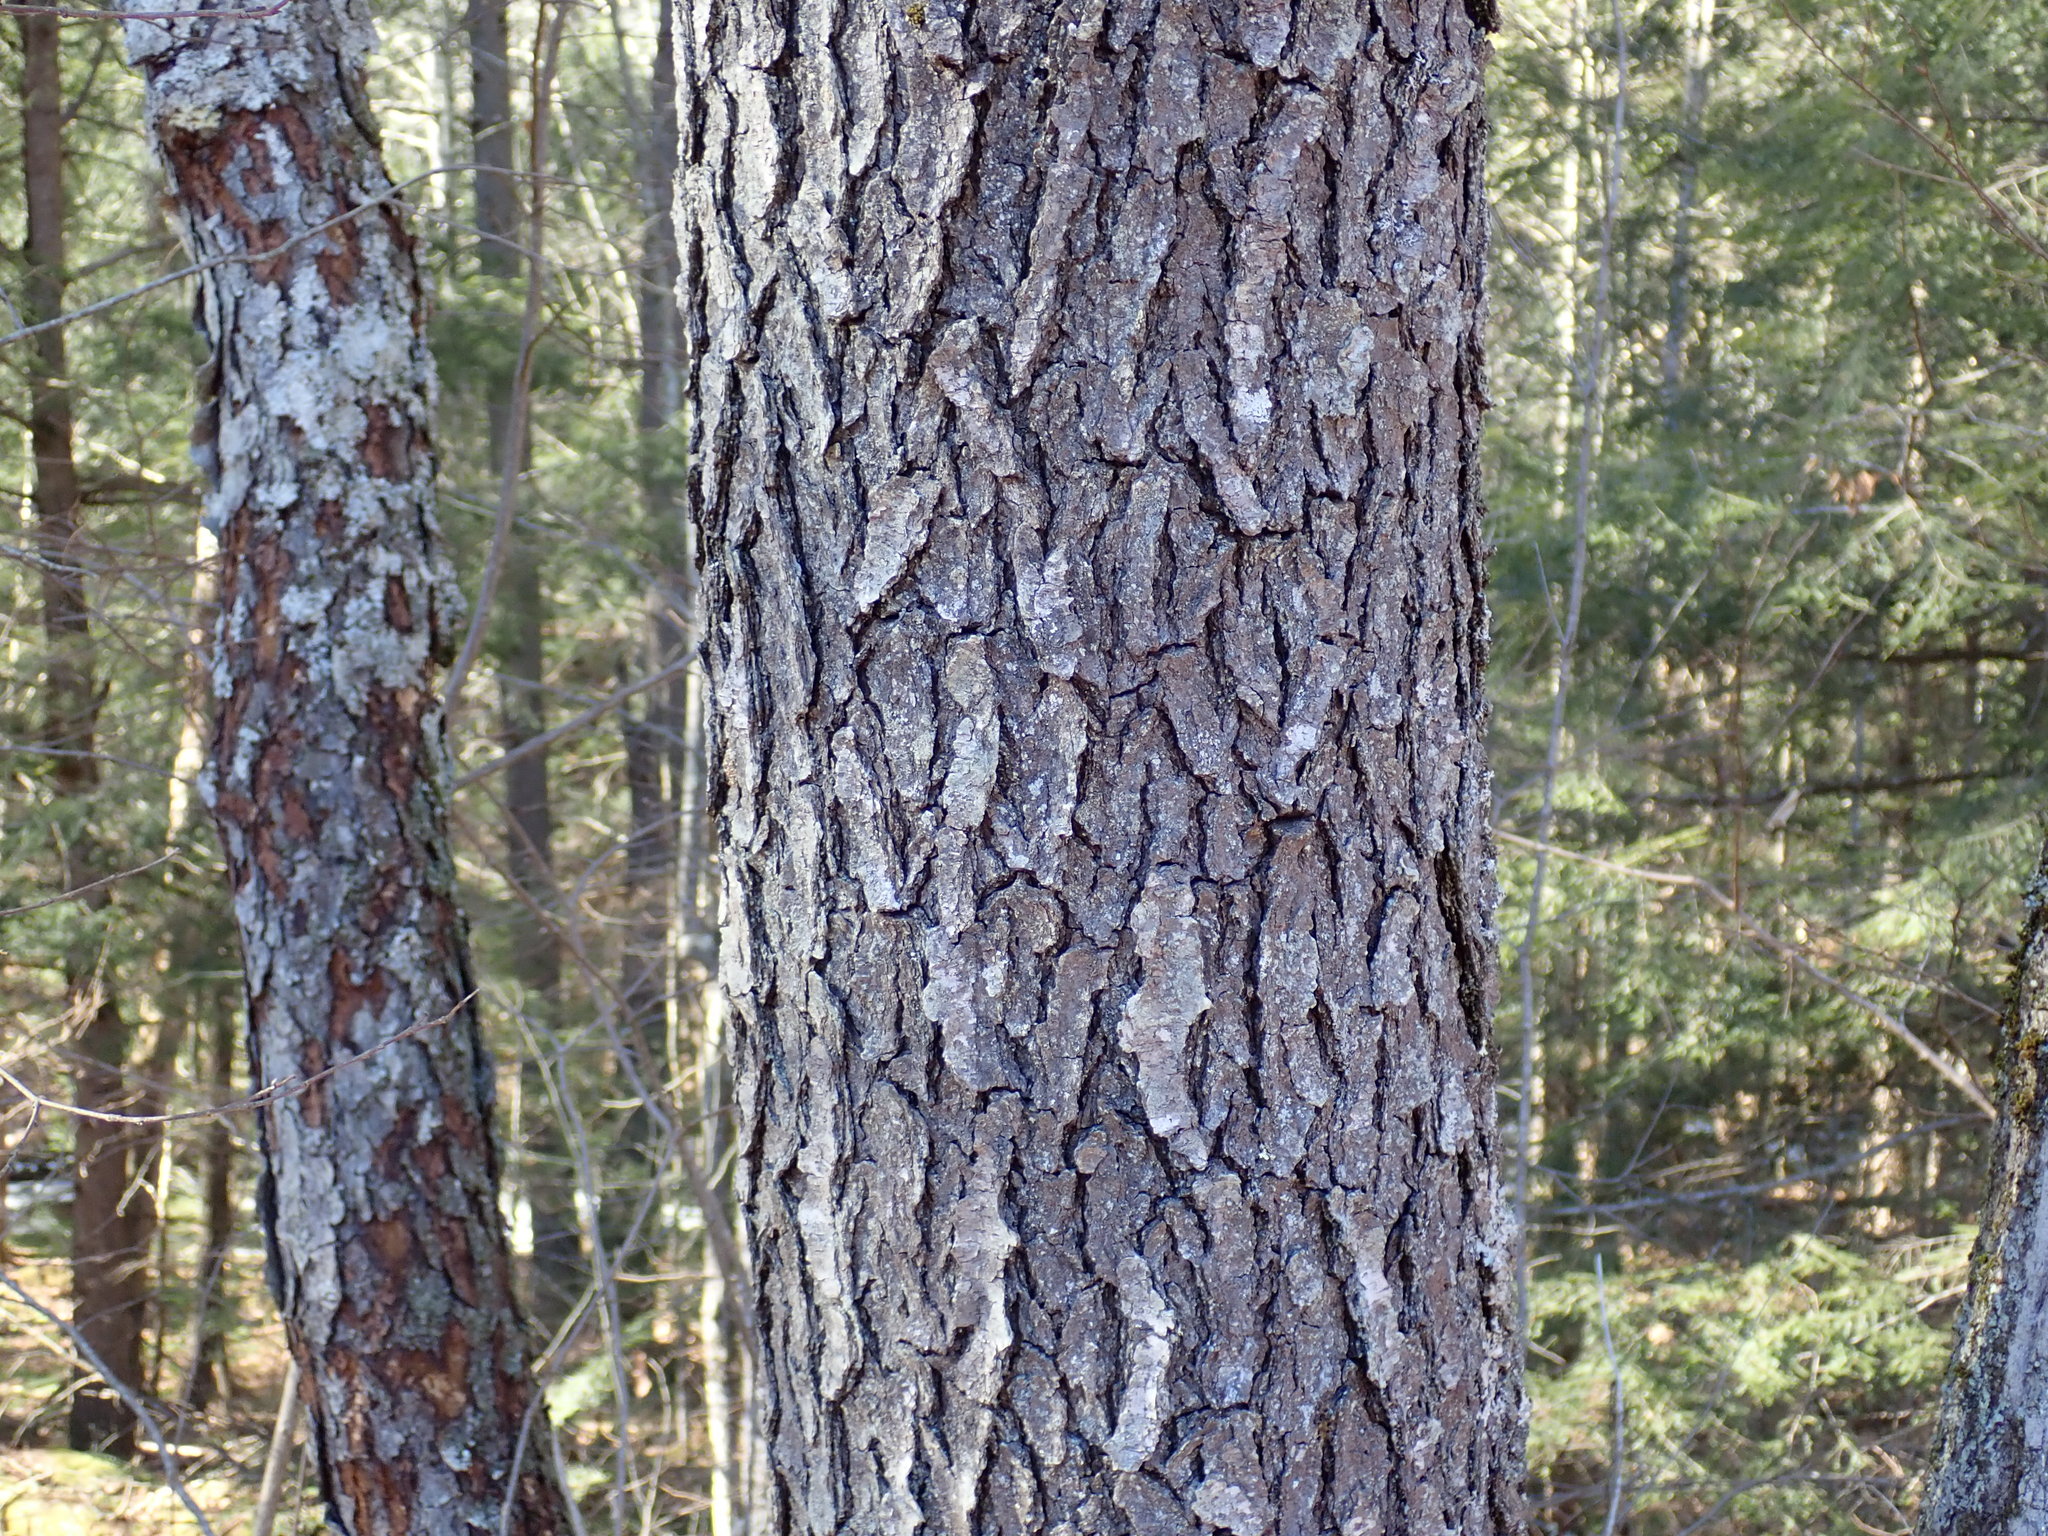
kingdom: Plantae
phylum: Tracheophyta
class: Magnoliopsida
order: Rosales
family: Rosaceae
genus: Prunus
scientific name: Prunus serotina
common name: Black cherry
